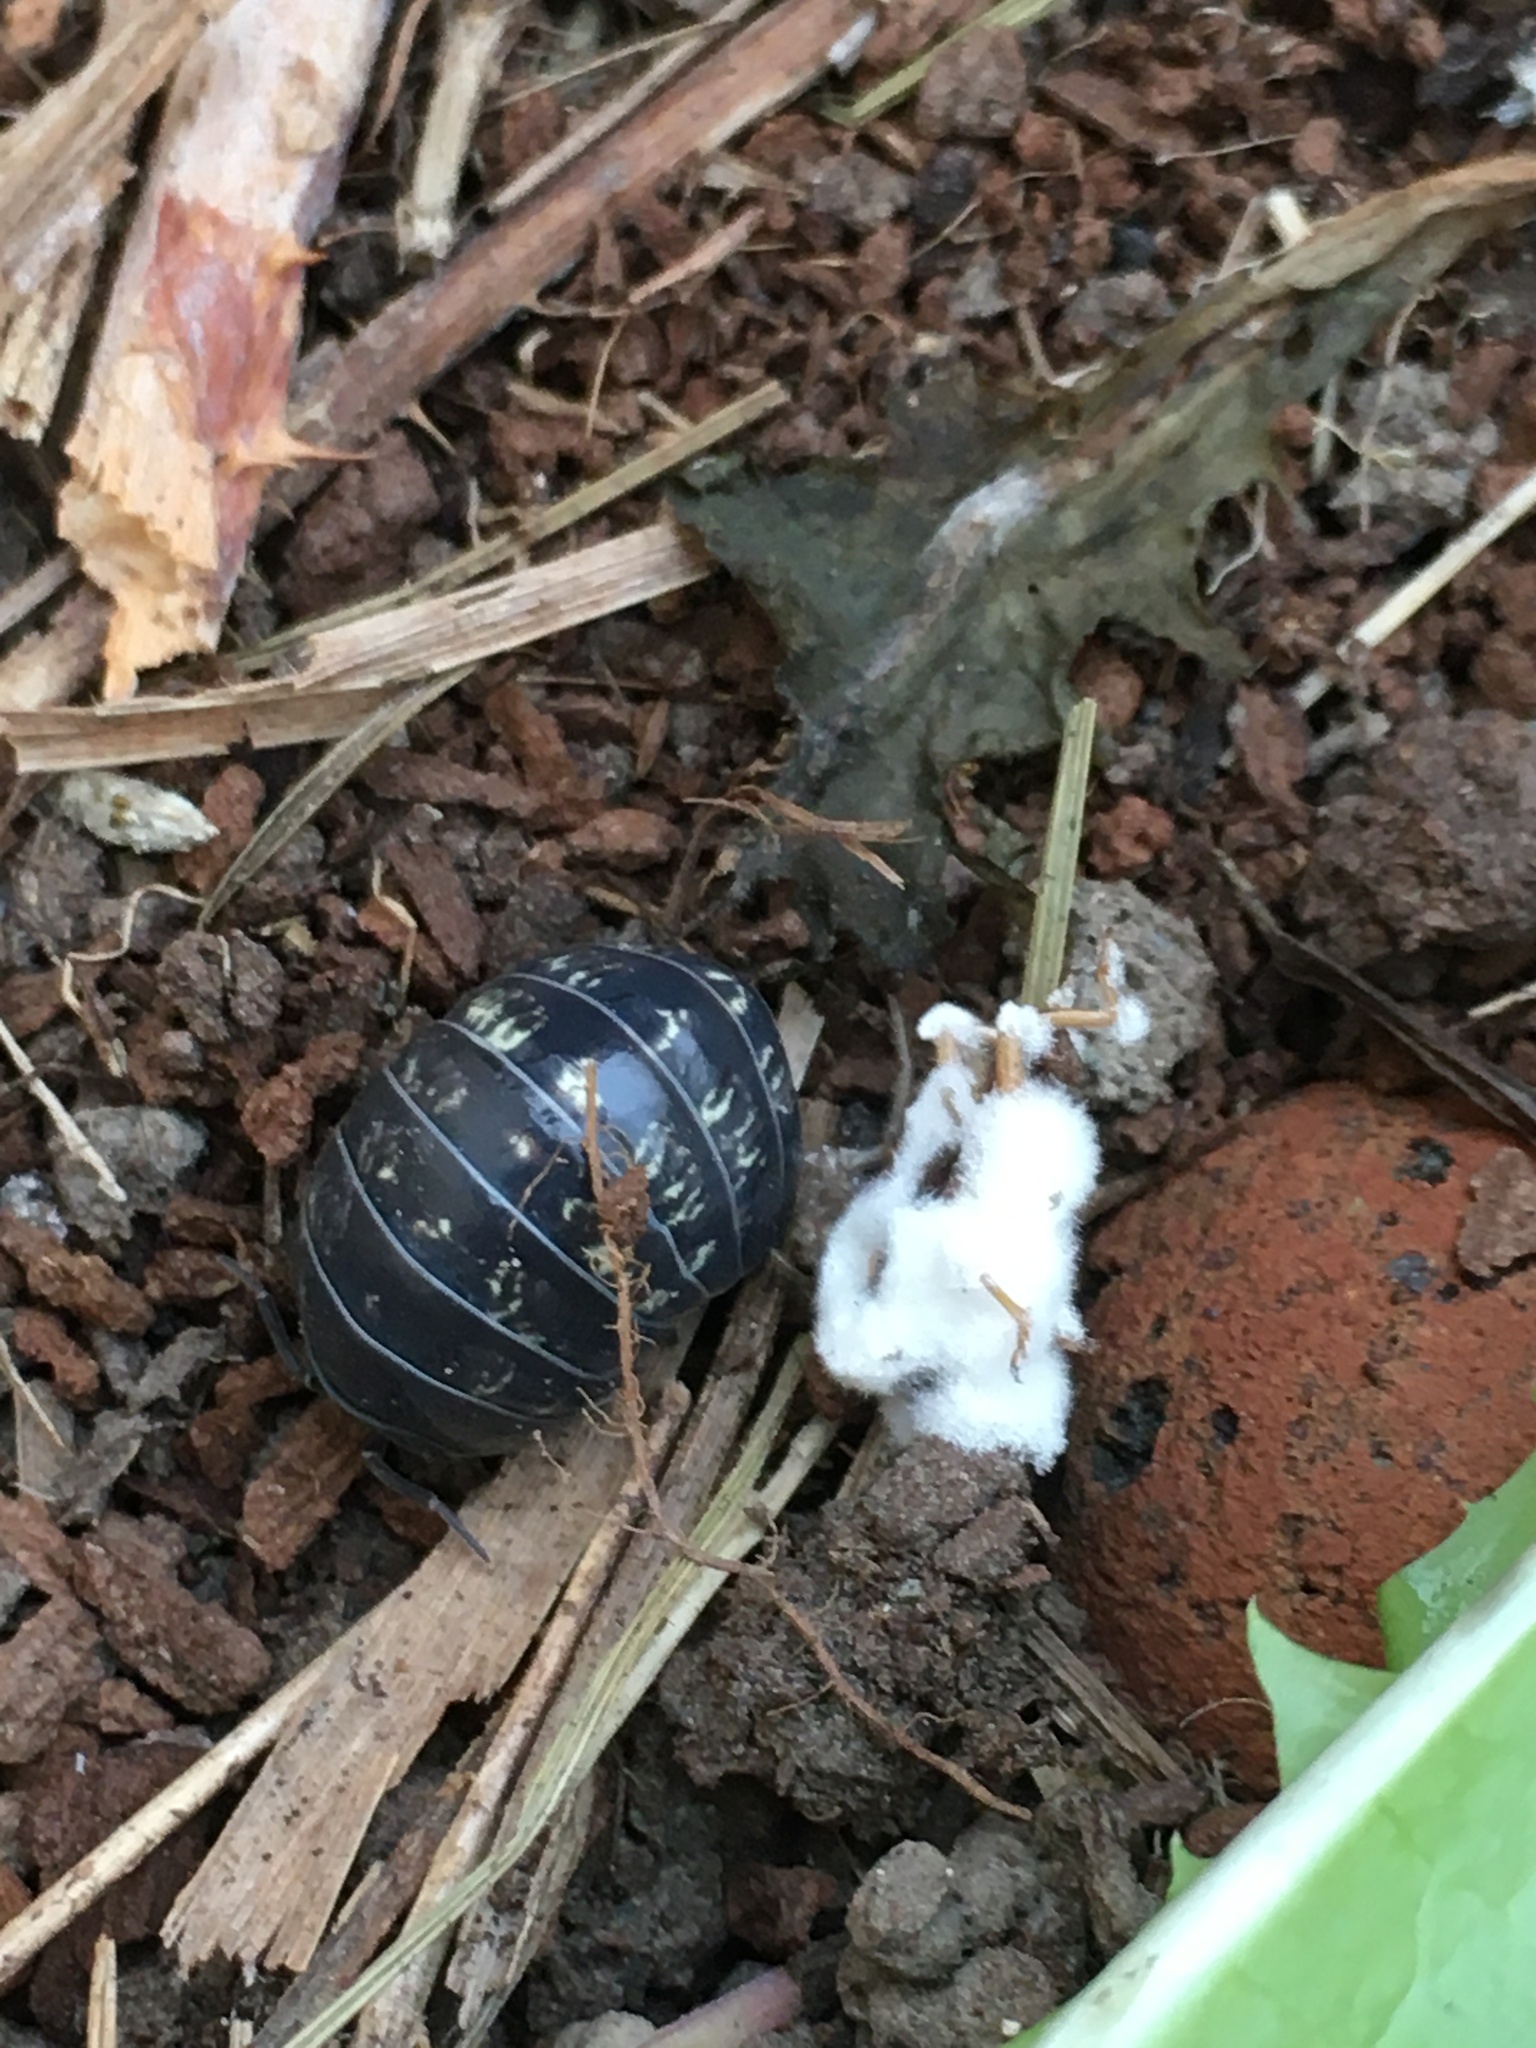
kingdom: Animalia
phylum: Arthropoda
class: Malacostraca
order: Isopoda
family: Armadillidiidae
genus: Armadillidium
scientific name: Armadillidium vulgare
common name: Common pill woodlouse
